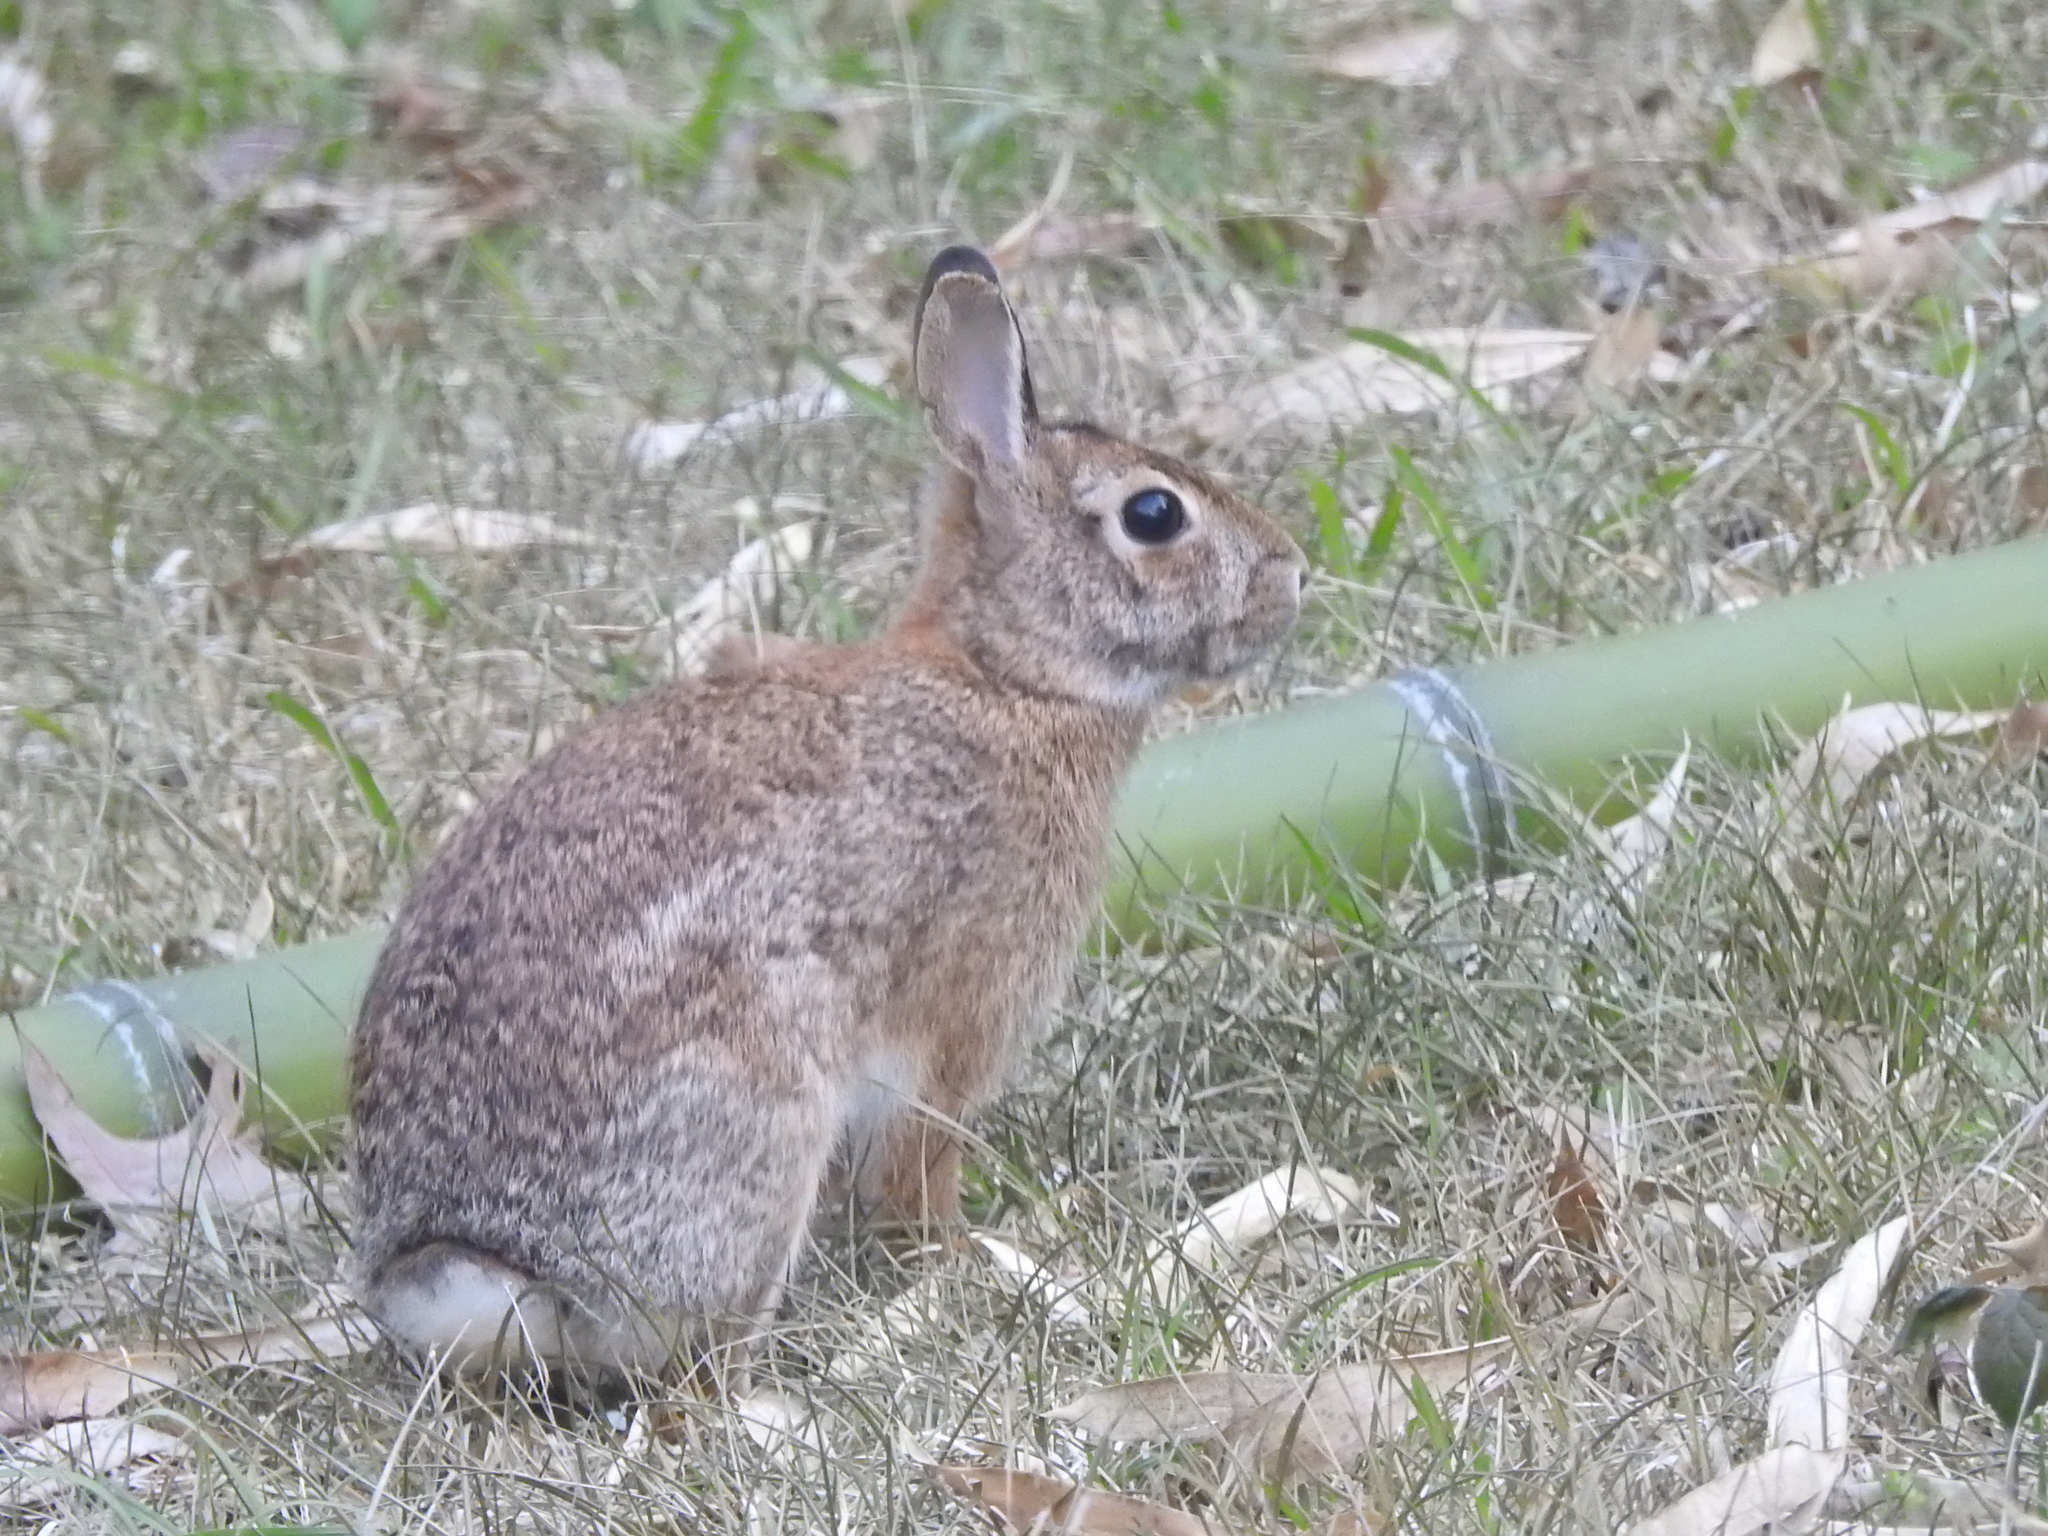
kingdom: Animalia
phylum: Chordata
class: Mammalia
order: Lagomorpha
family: Leporidae
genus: Sylvilagus
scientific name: Sylvilagus floridanus
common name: Eastern cottontail
